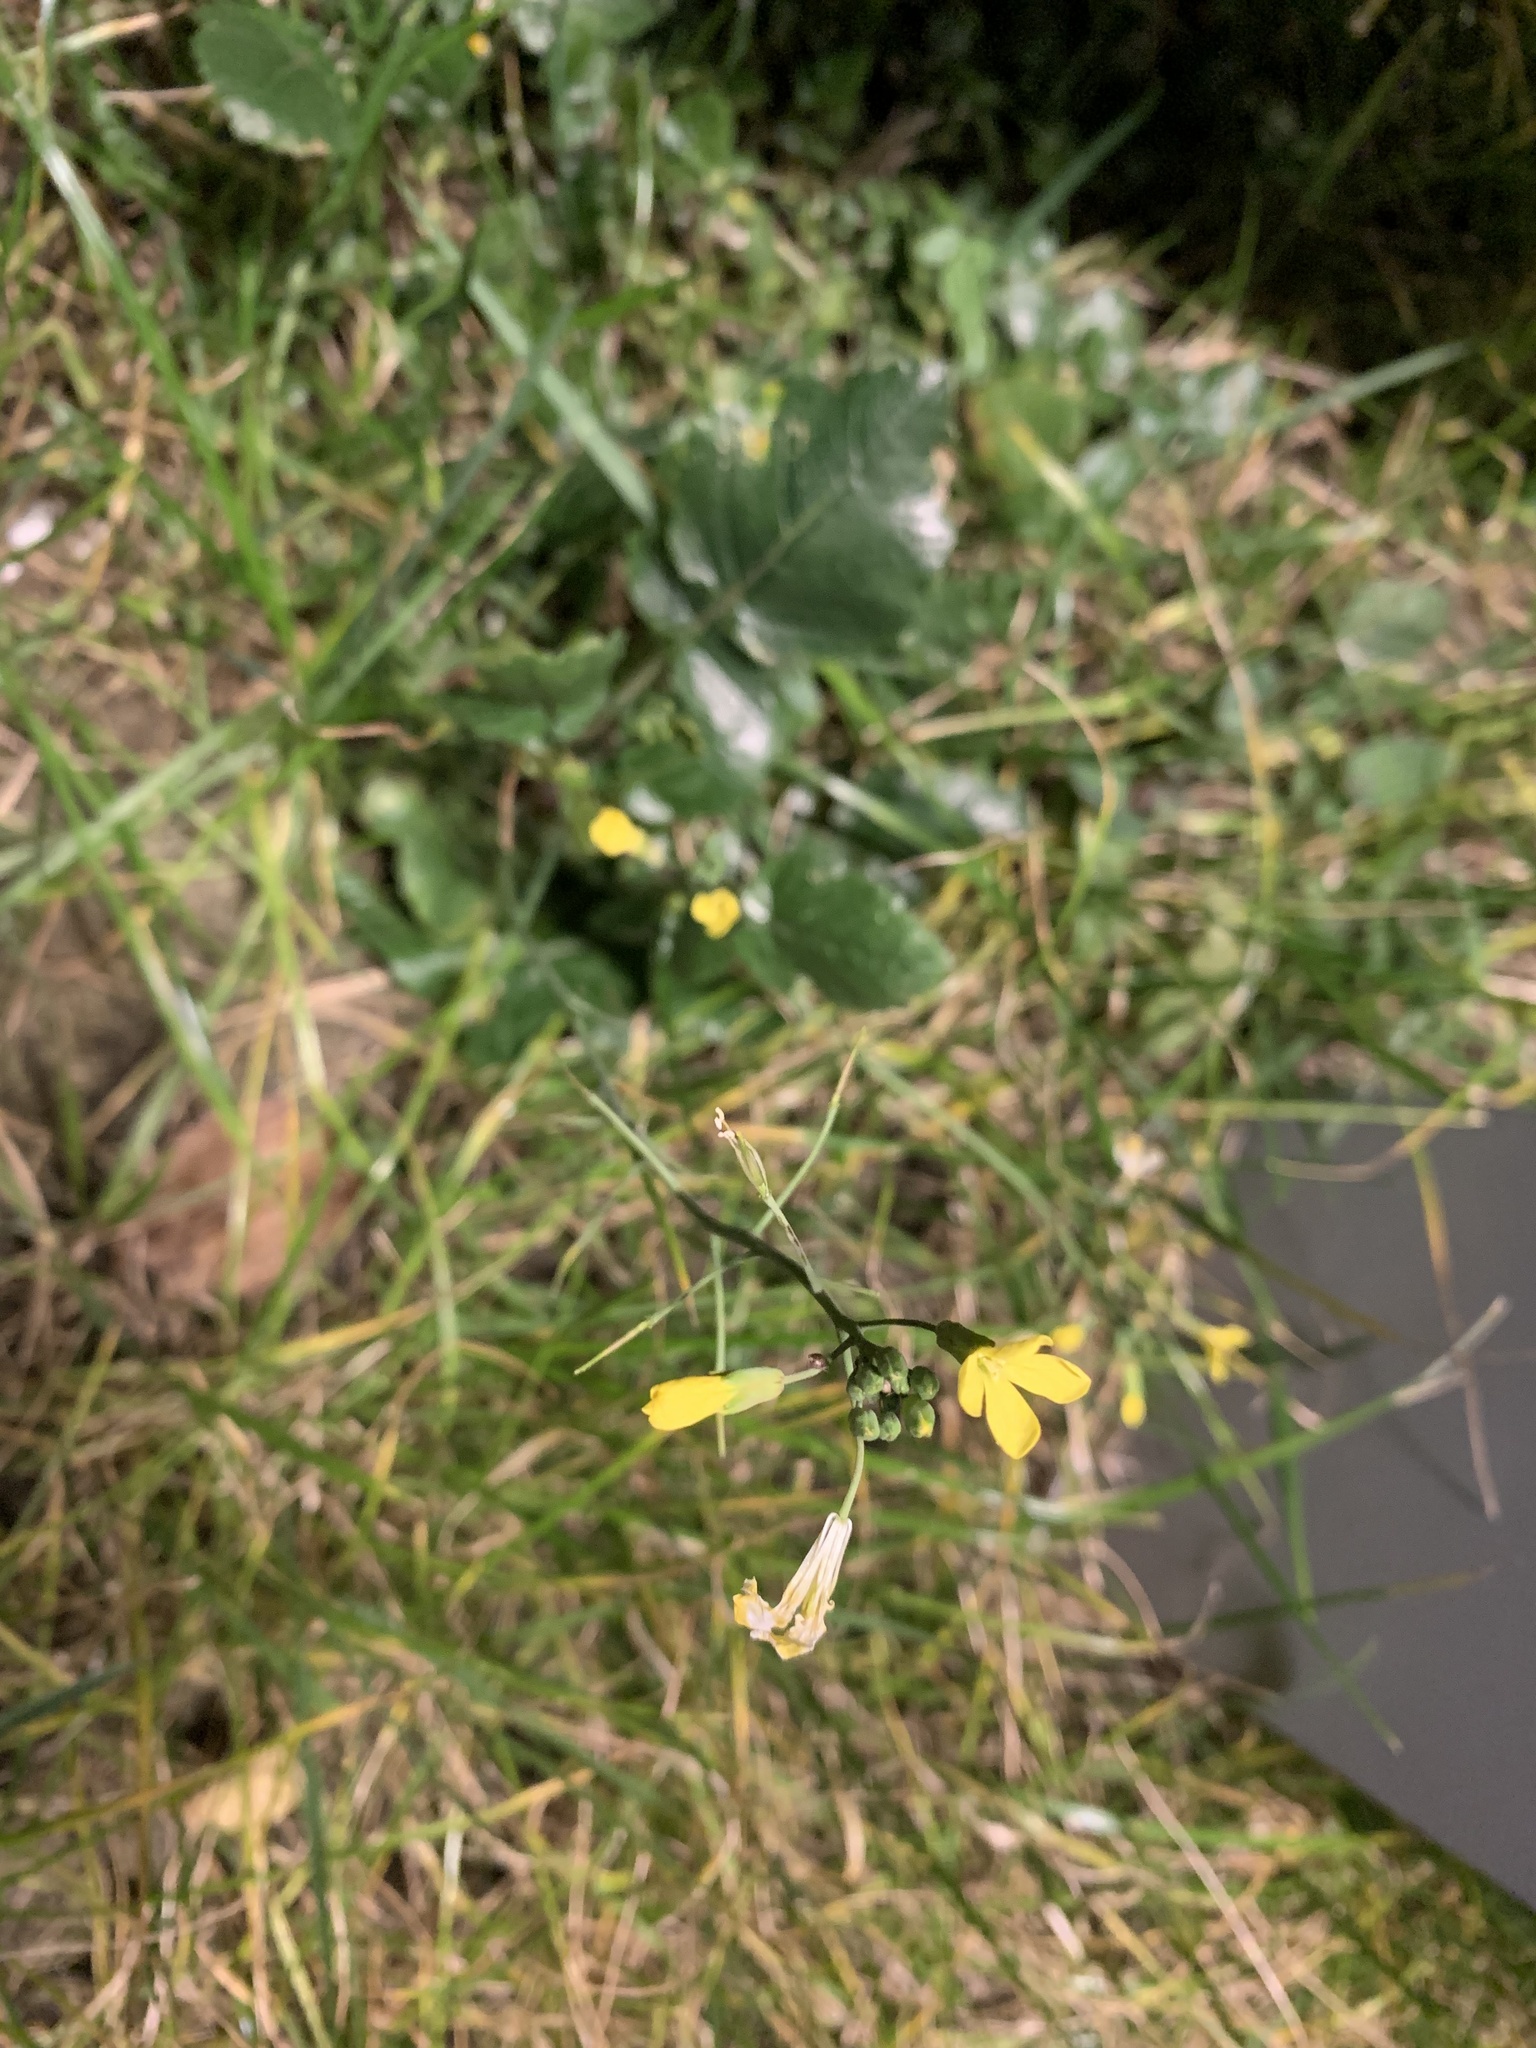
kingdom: Plantae
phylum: Tracheophyta
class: Magnoliopsida
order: Brassicales
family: Brassicaceae
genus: Raphanus
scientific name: Raphanus raphanistrum
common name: Wild radish
